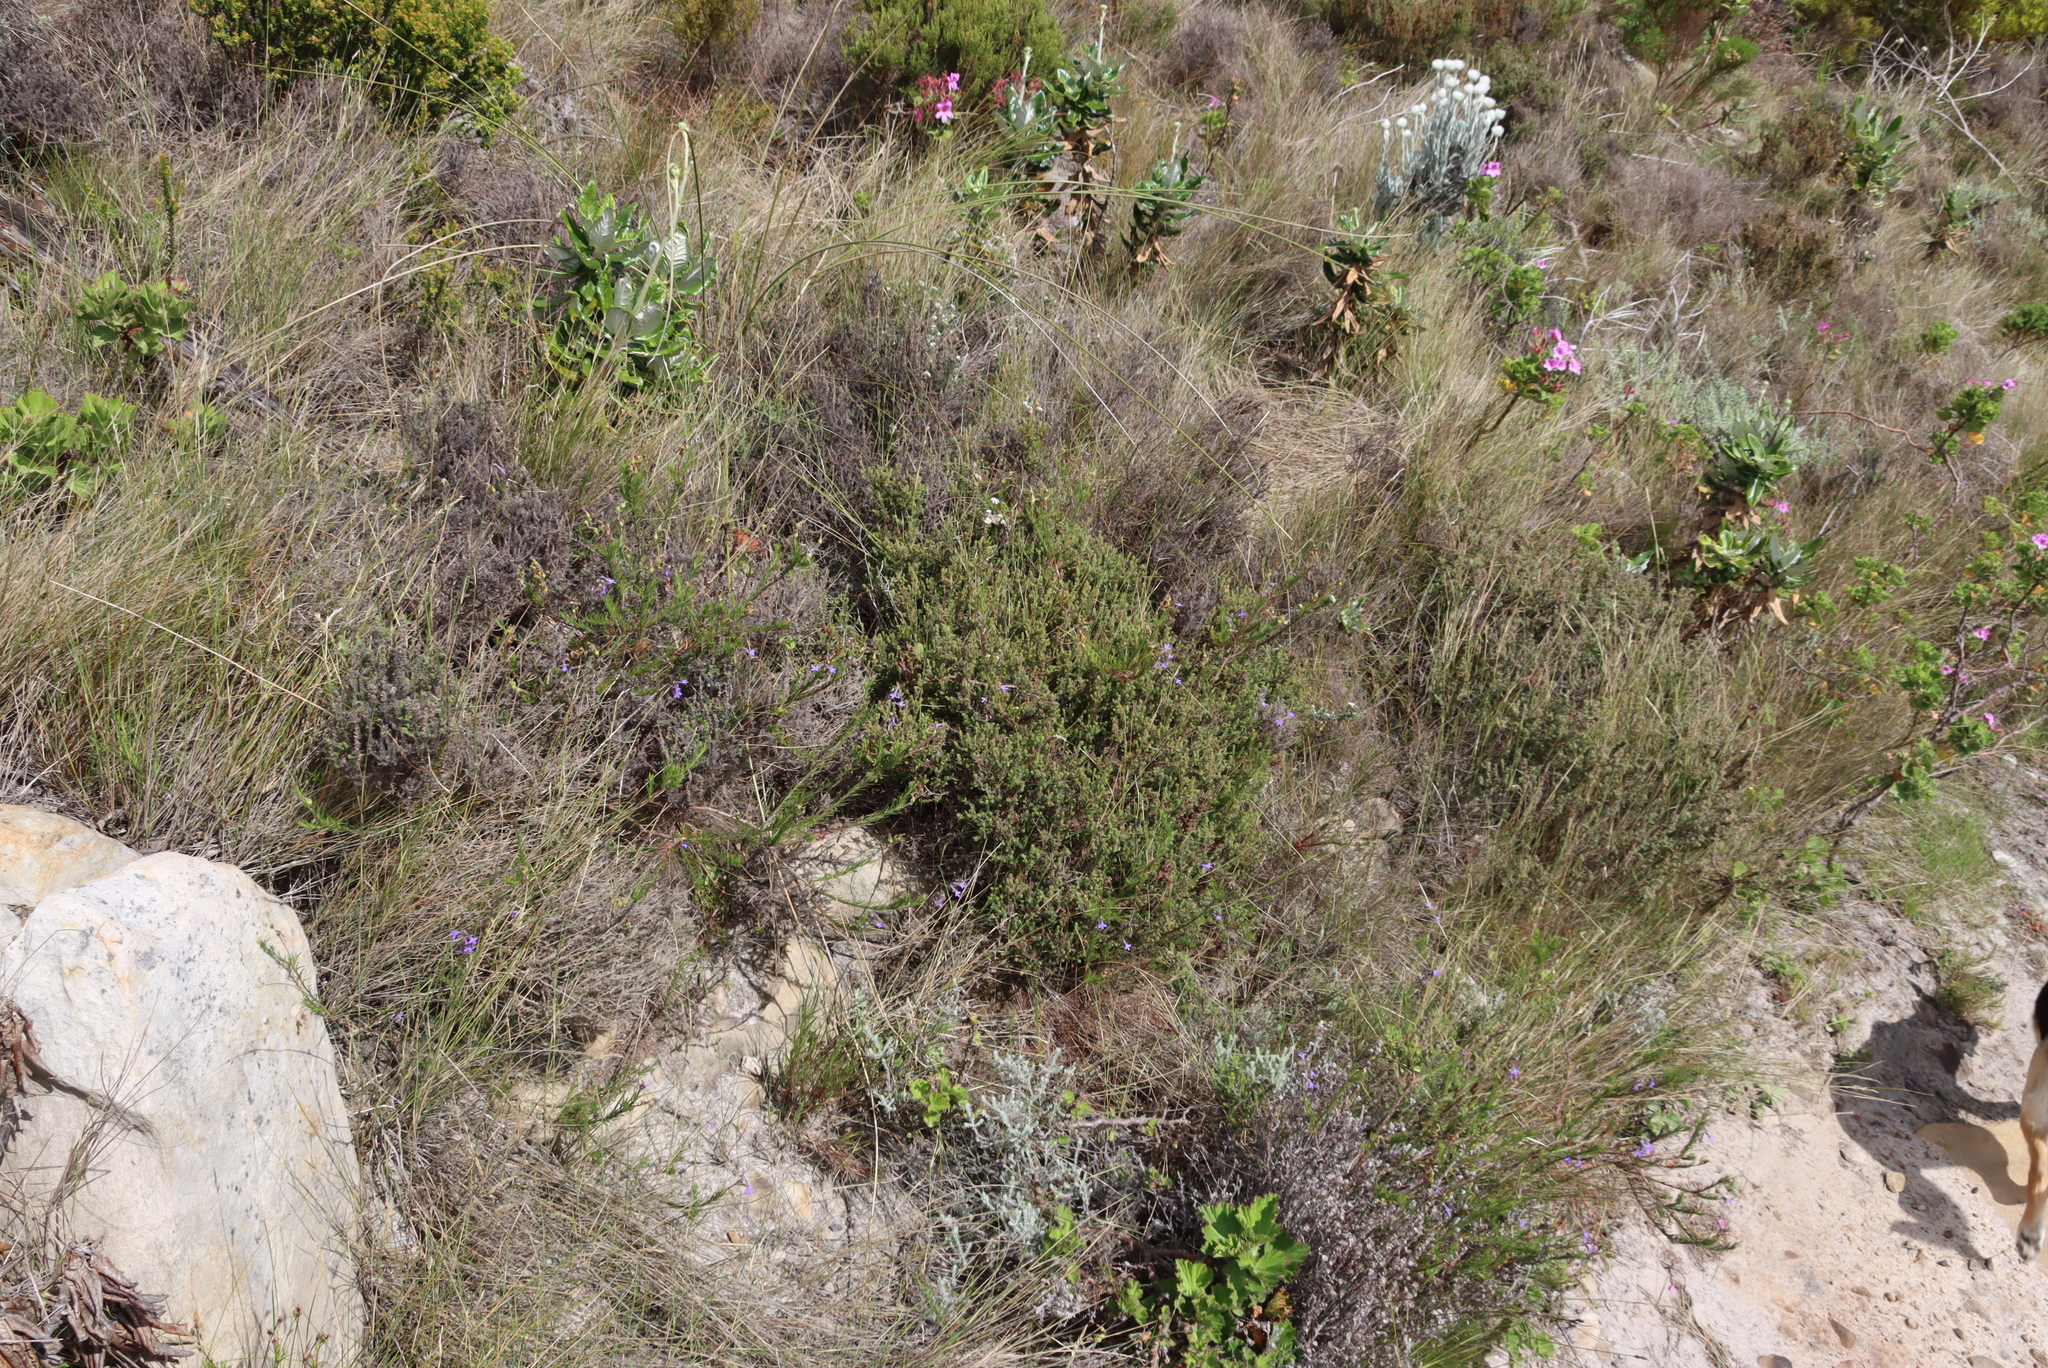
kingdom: Plantae
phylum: Tracheophyta
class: Magnoliopsida
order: Asterales
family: Campanulaceae
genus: Lobelia
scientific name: Lobelia pinifolia
